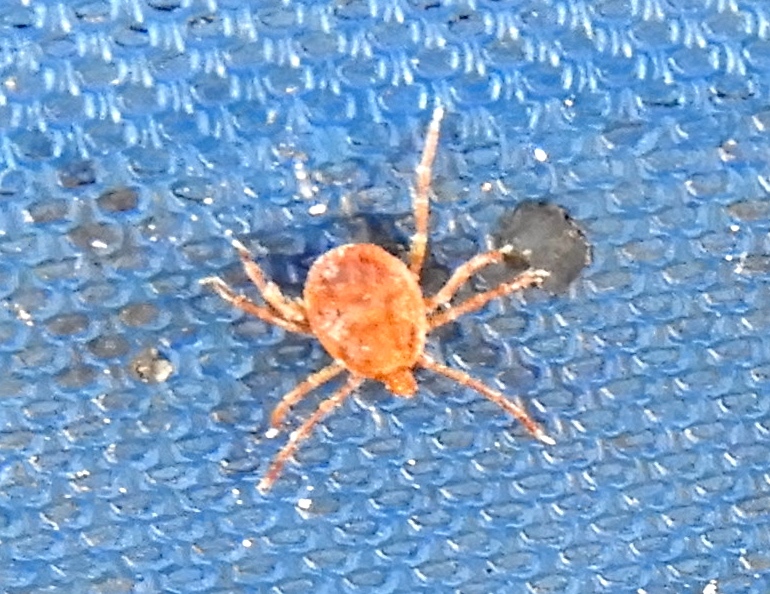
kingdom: Animalia
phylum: Arthropoda
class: Arachnida
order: Ixodida
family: Ixodidae
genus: Amblyomma
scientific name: Amblyomma
